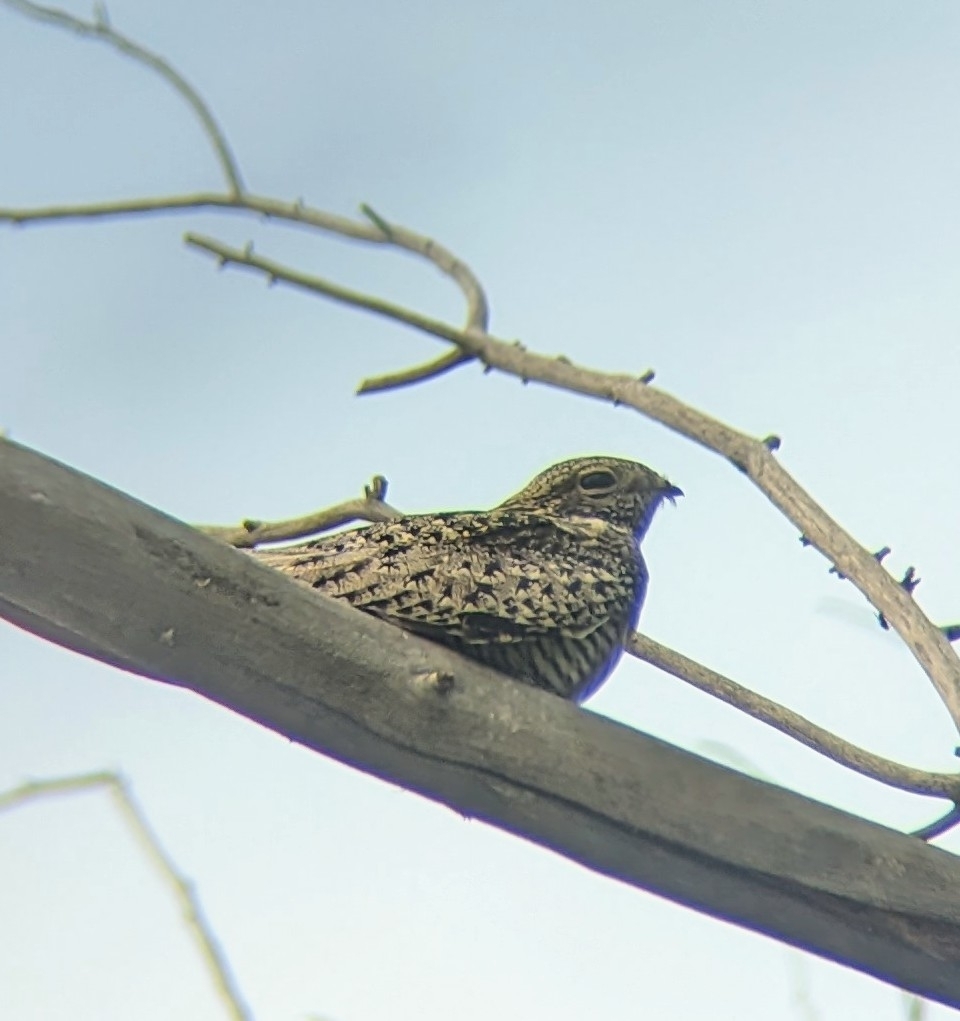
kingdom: Animalia
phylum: Chordata
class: Aves
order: Caprimulgiformes
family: Caprimulgidae
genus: Chordeiles
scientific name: Chordeiles minor
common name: Common nighthawk
